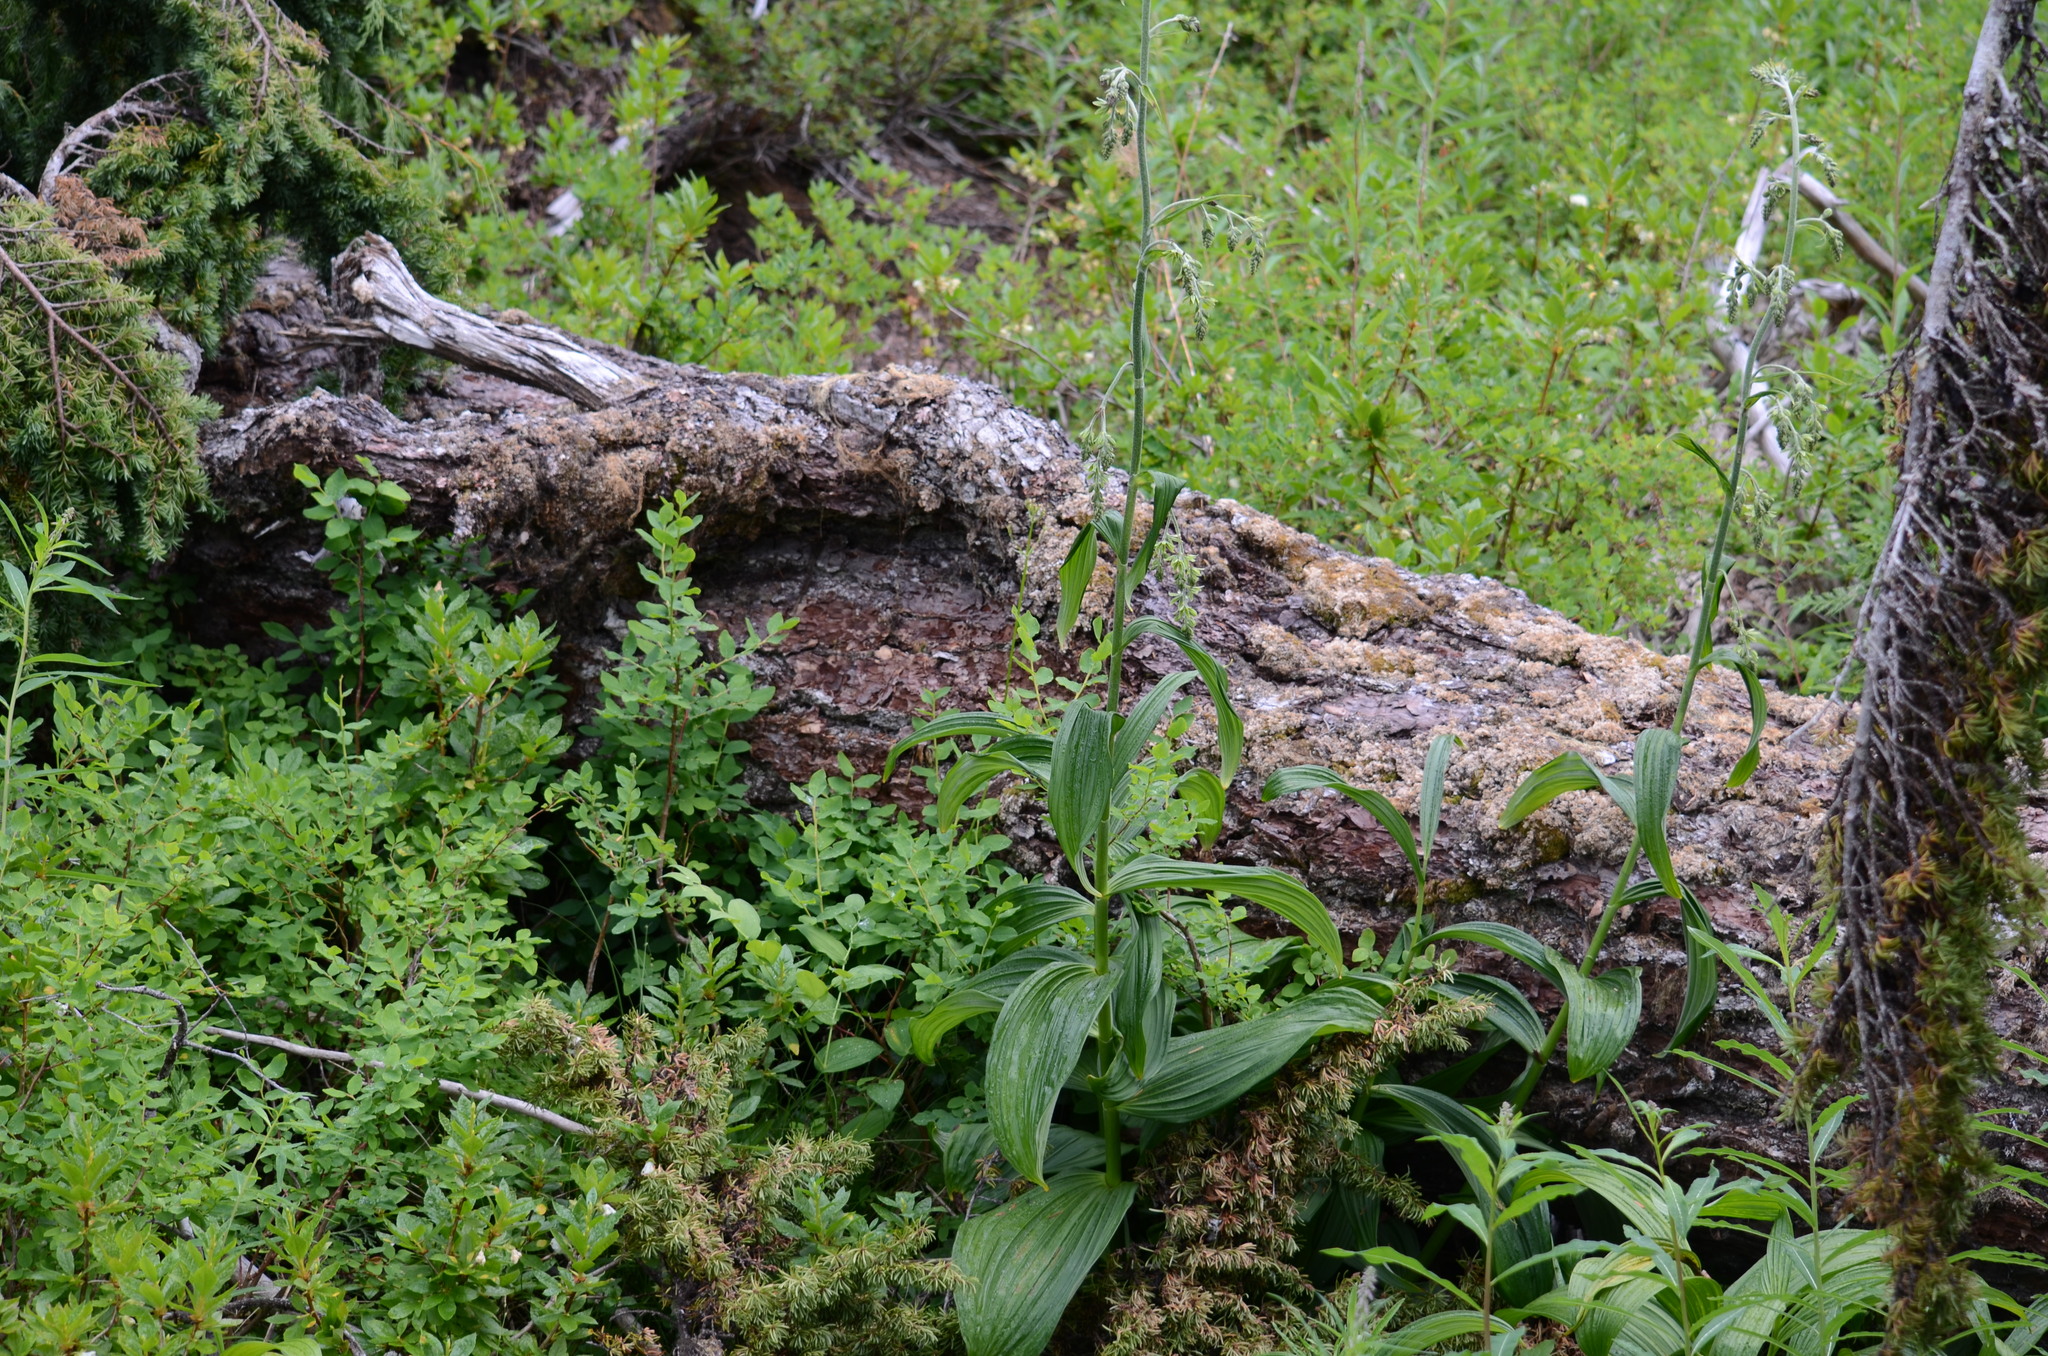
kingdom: Plantae
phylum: Tracheophyta
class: Liliopsida
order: Liliales
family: Melanthiaceae
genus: Veratrum
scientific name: Veratrum viride
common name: American false hellebore
